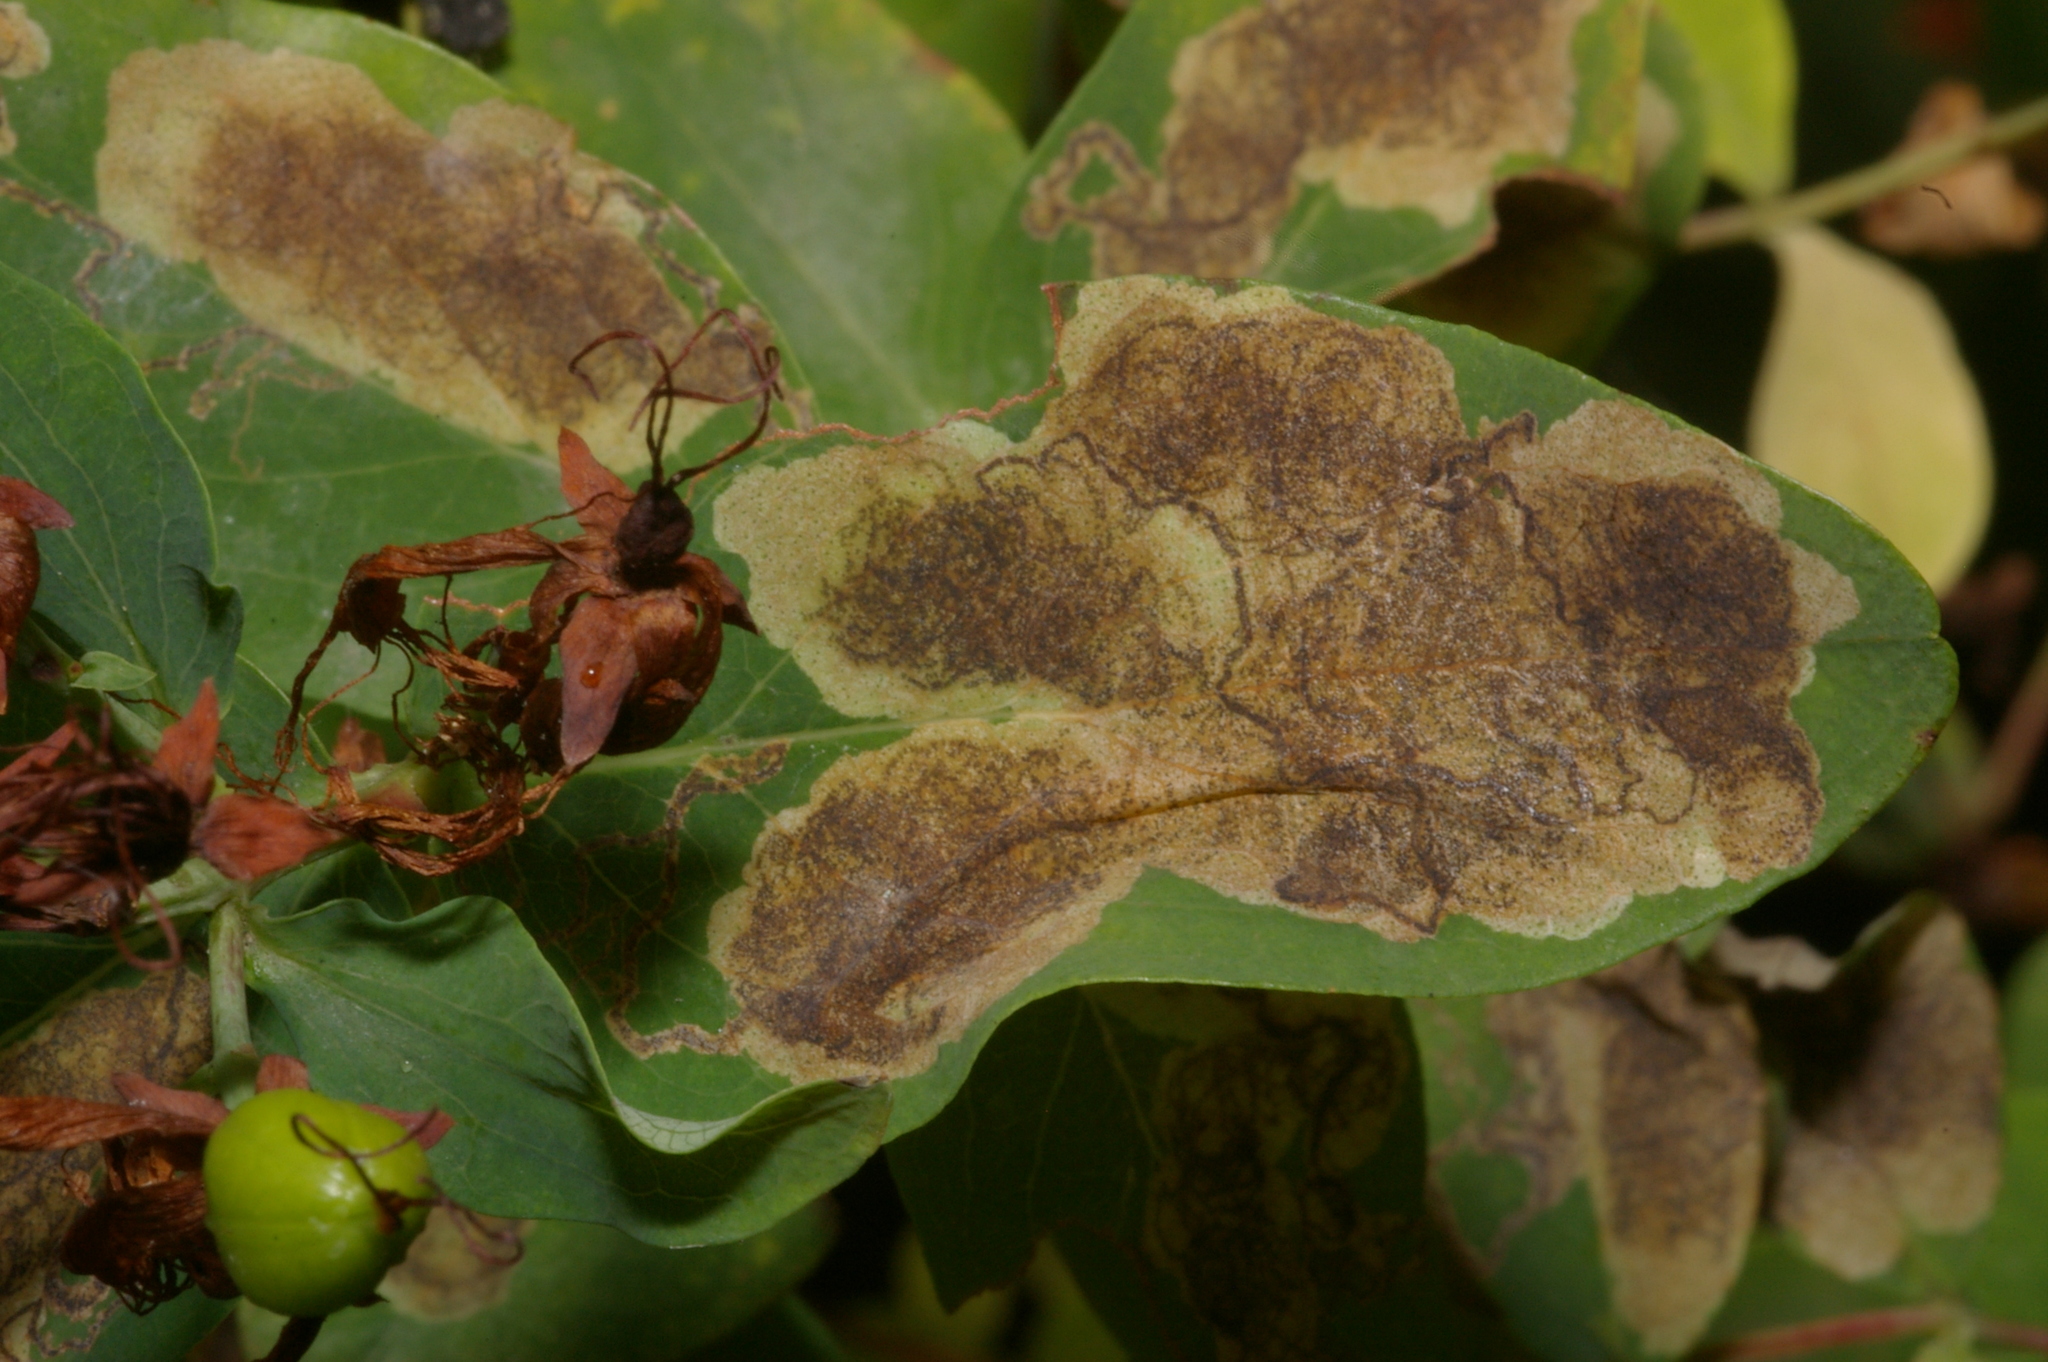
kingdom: Animalia
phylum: Arthropoda
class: Insecta
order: Lepidoptera
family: Nepticulidae
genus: Fomoria
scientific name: Fomoria septembrella
